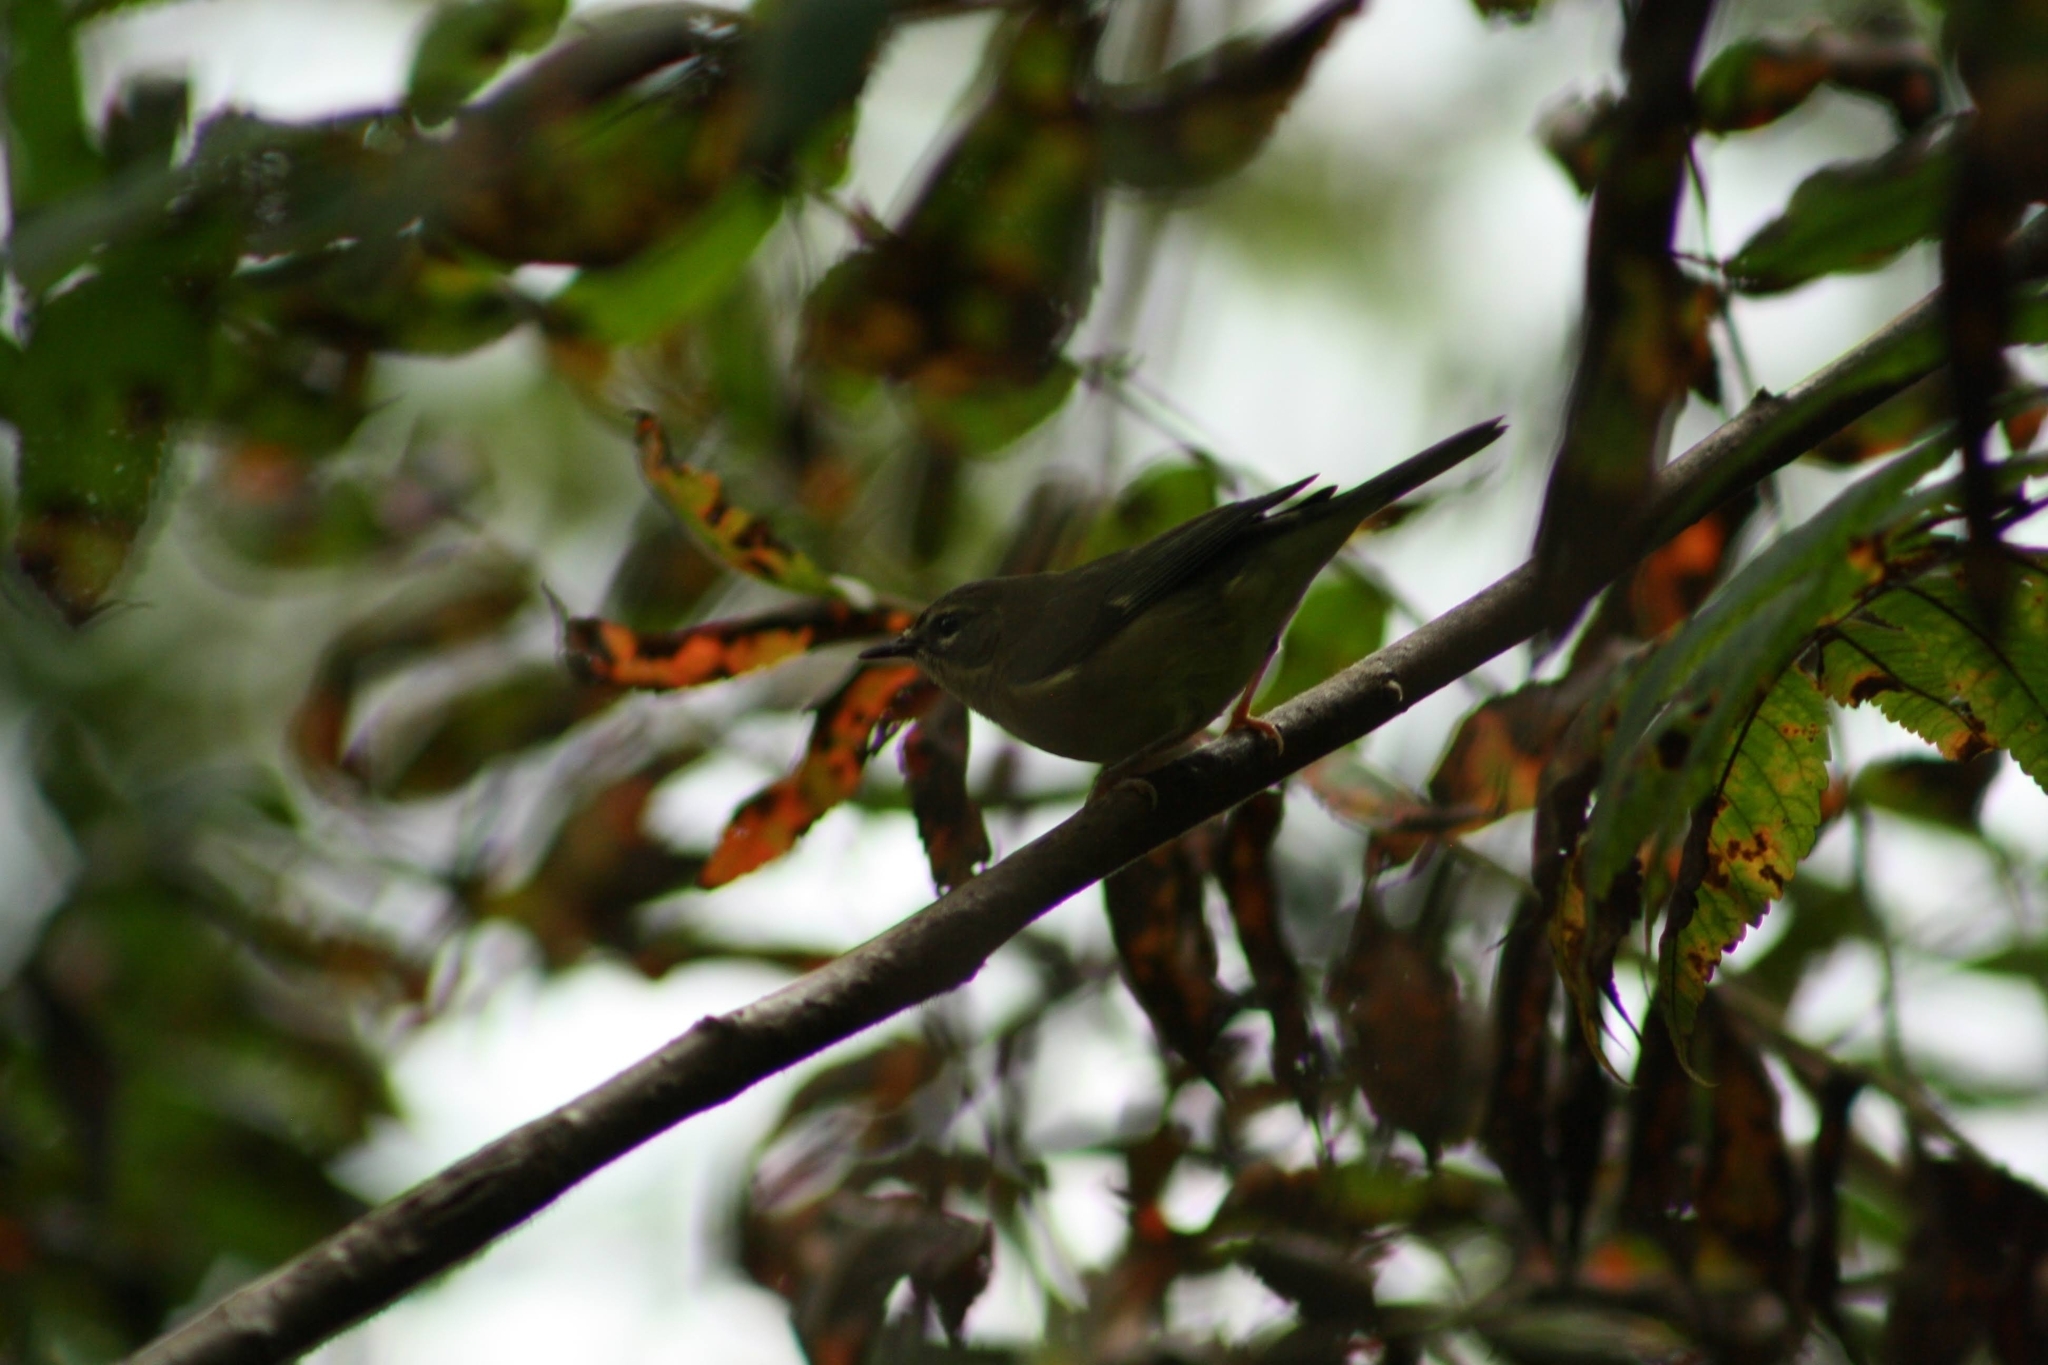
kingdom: Animalia
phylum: Chordata
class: Aves
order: Passeriformes
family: Parulidae
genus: Setophaga
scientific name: Setophaga caerulescens
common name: Black-throated blue warbler
